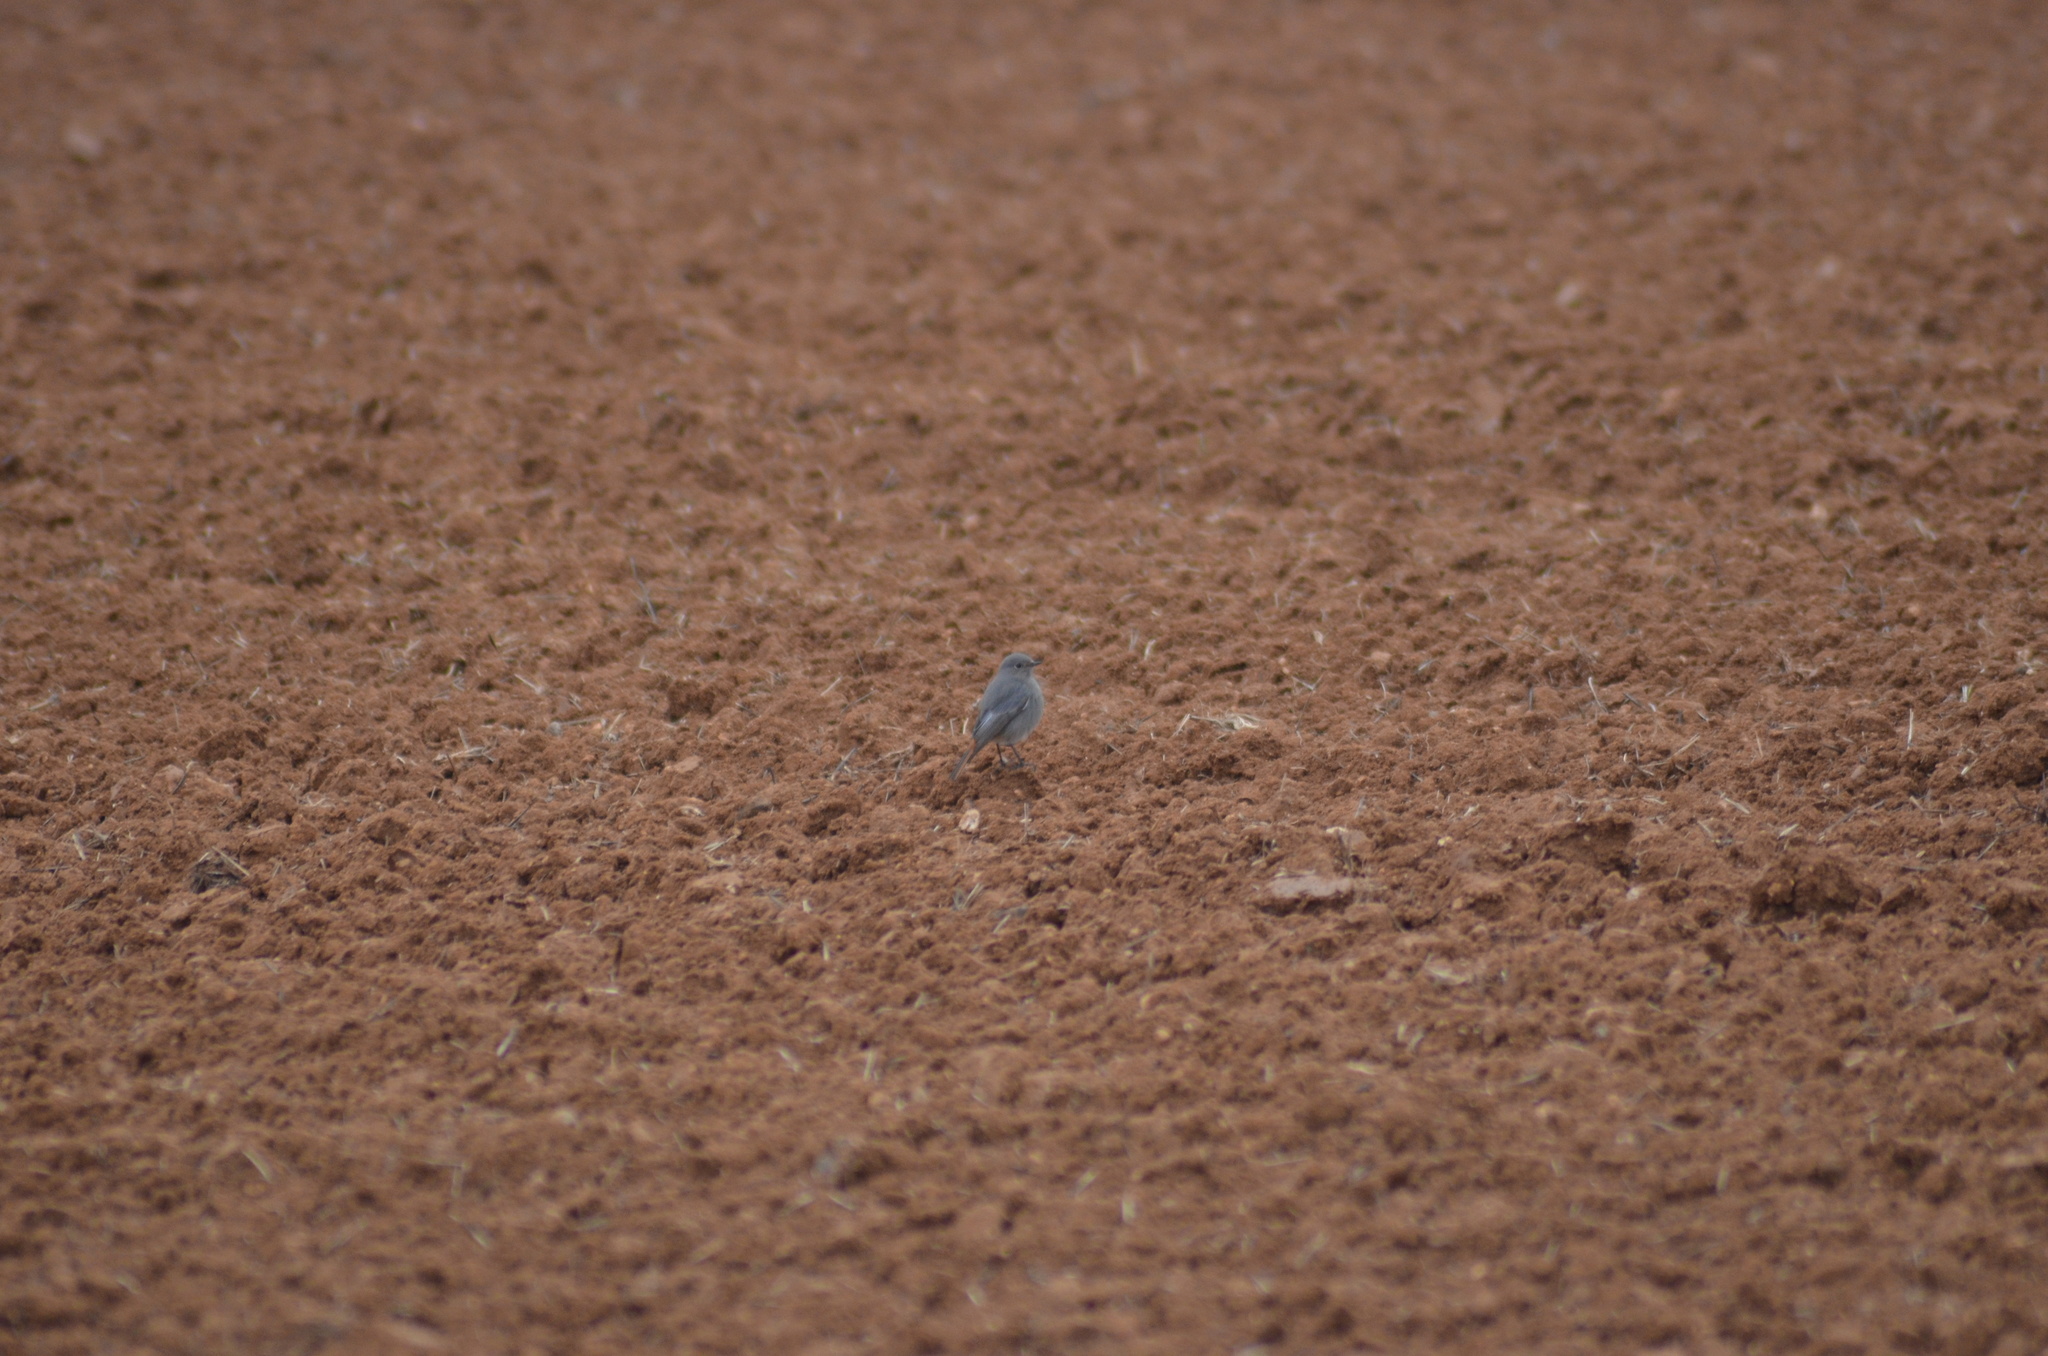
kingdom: Animalia
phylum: Chordata
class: Aves
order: Passeriformes
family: Muscicapidae
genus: Phoenicurus
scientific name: Phoenicurus ochruros
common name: Black redstart
